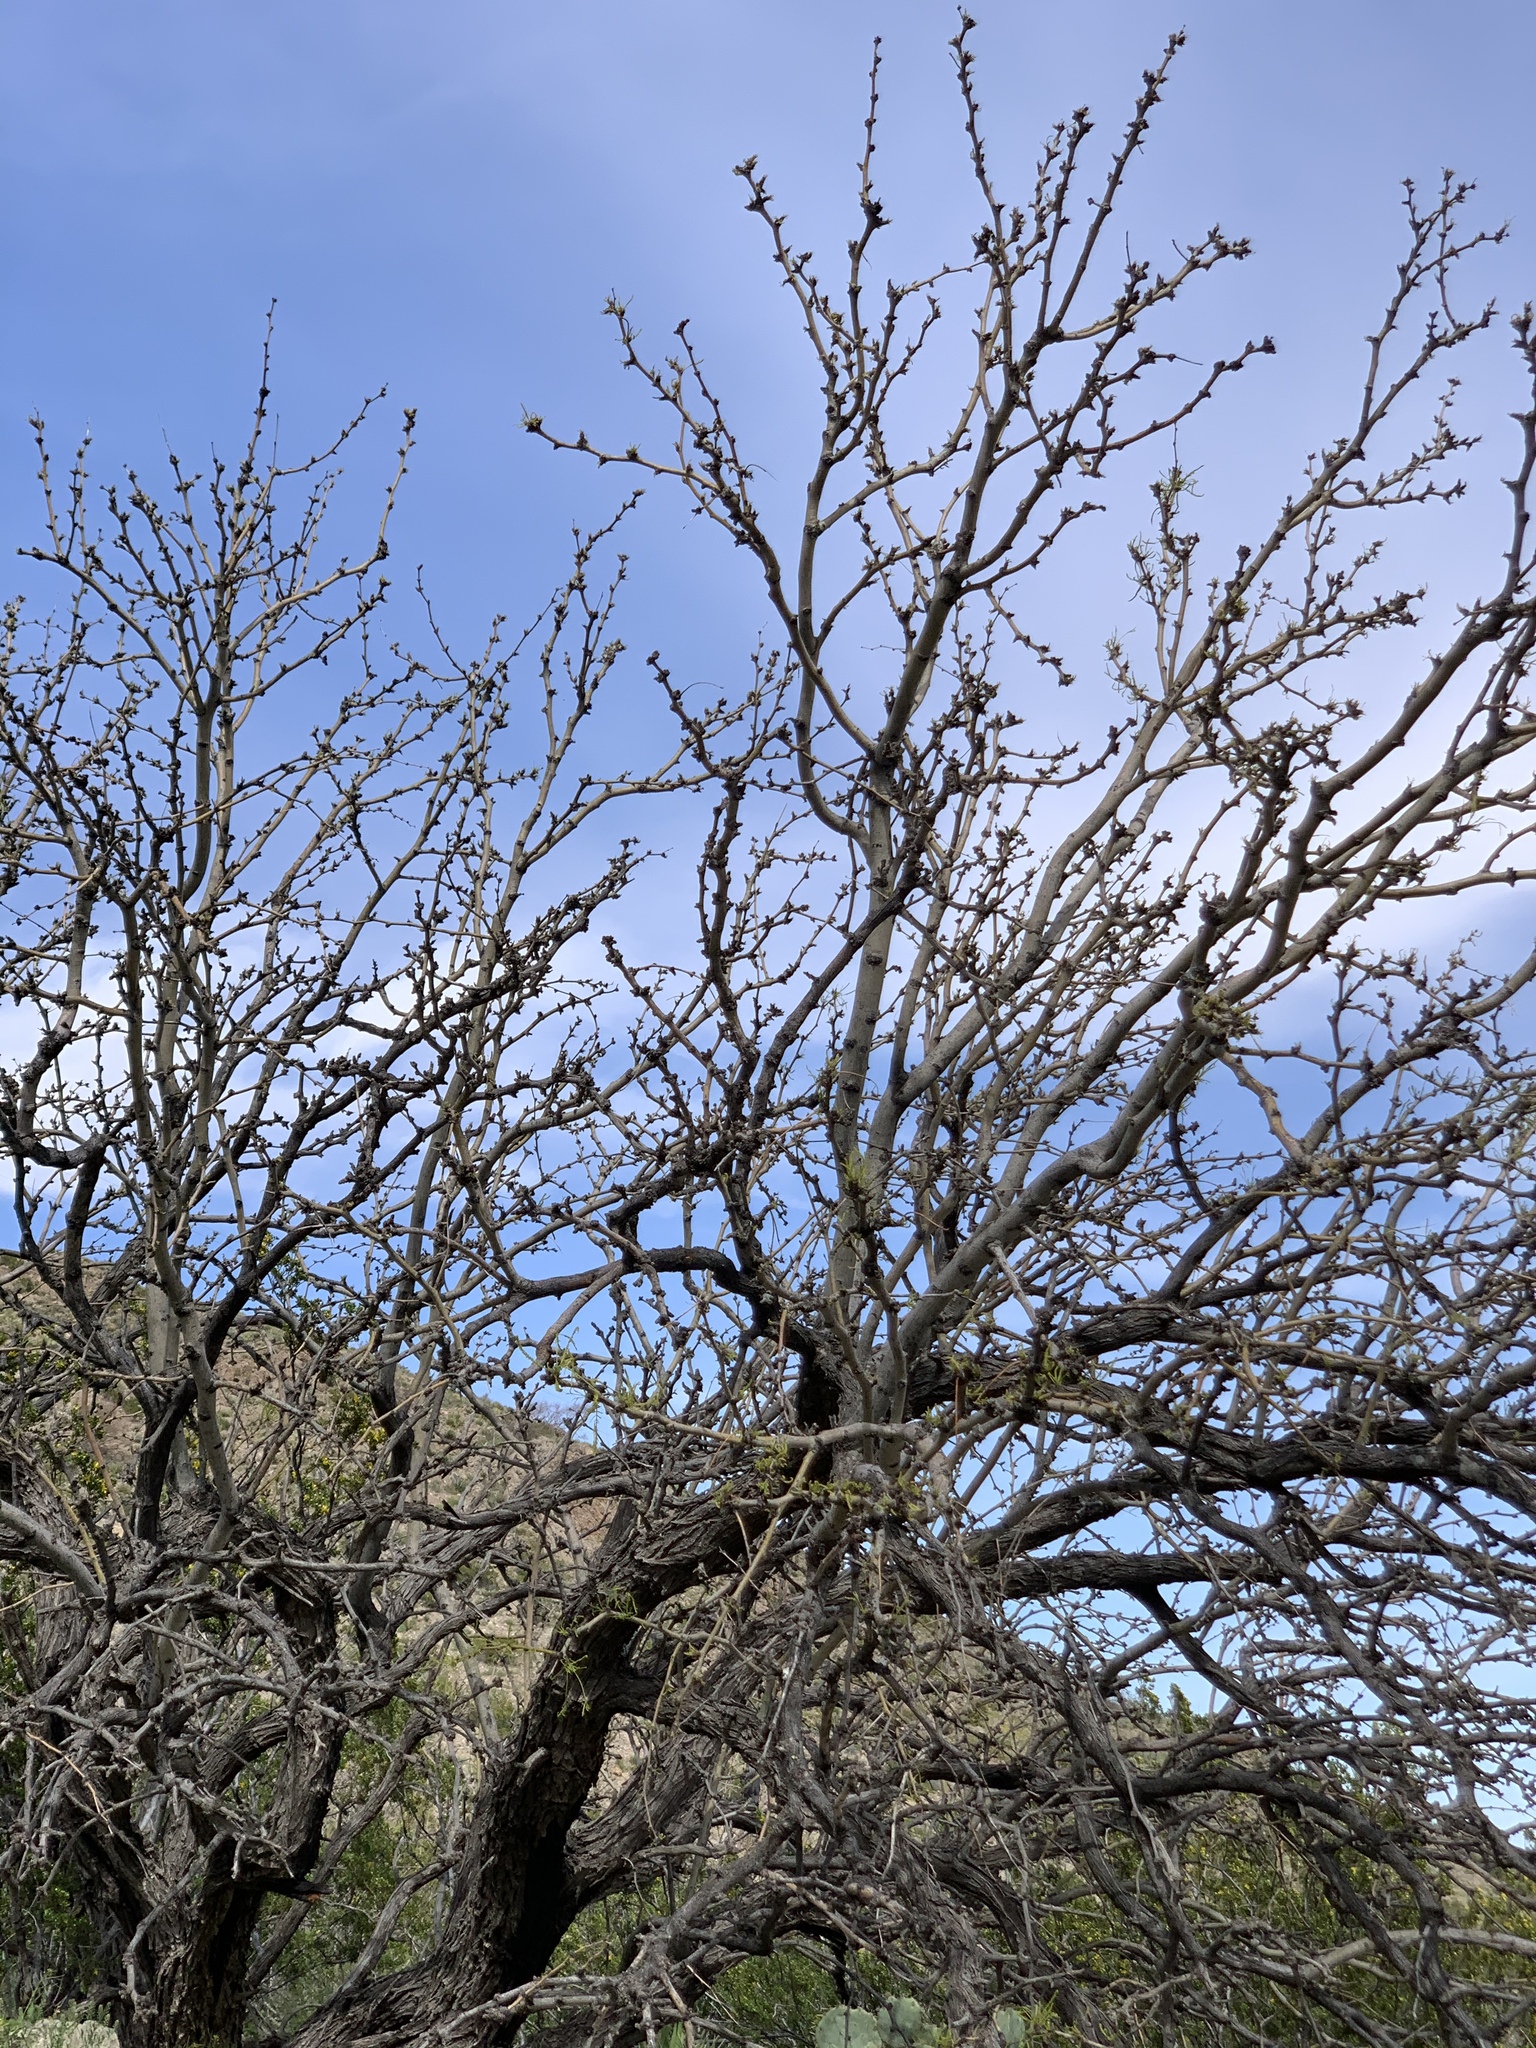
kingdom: Plantae
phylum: Tracheophyta
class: Magnoliopsida
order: Fabales
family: Fabaceae
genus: Prosopis
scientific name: Prosopis glandulosa
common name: Honey mesquite
